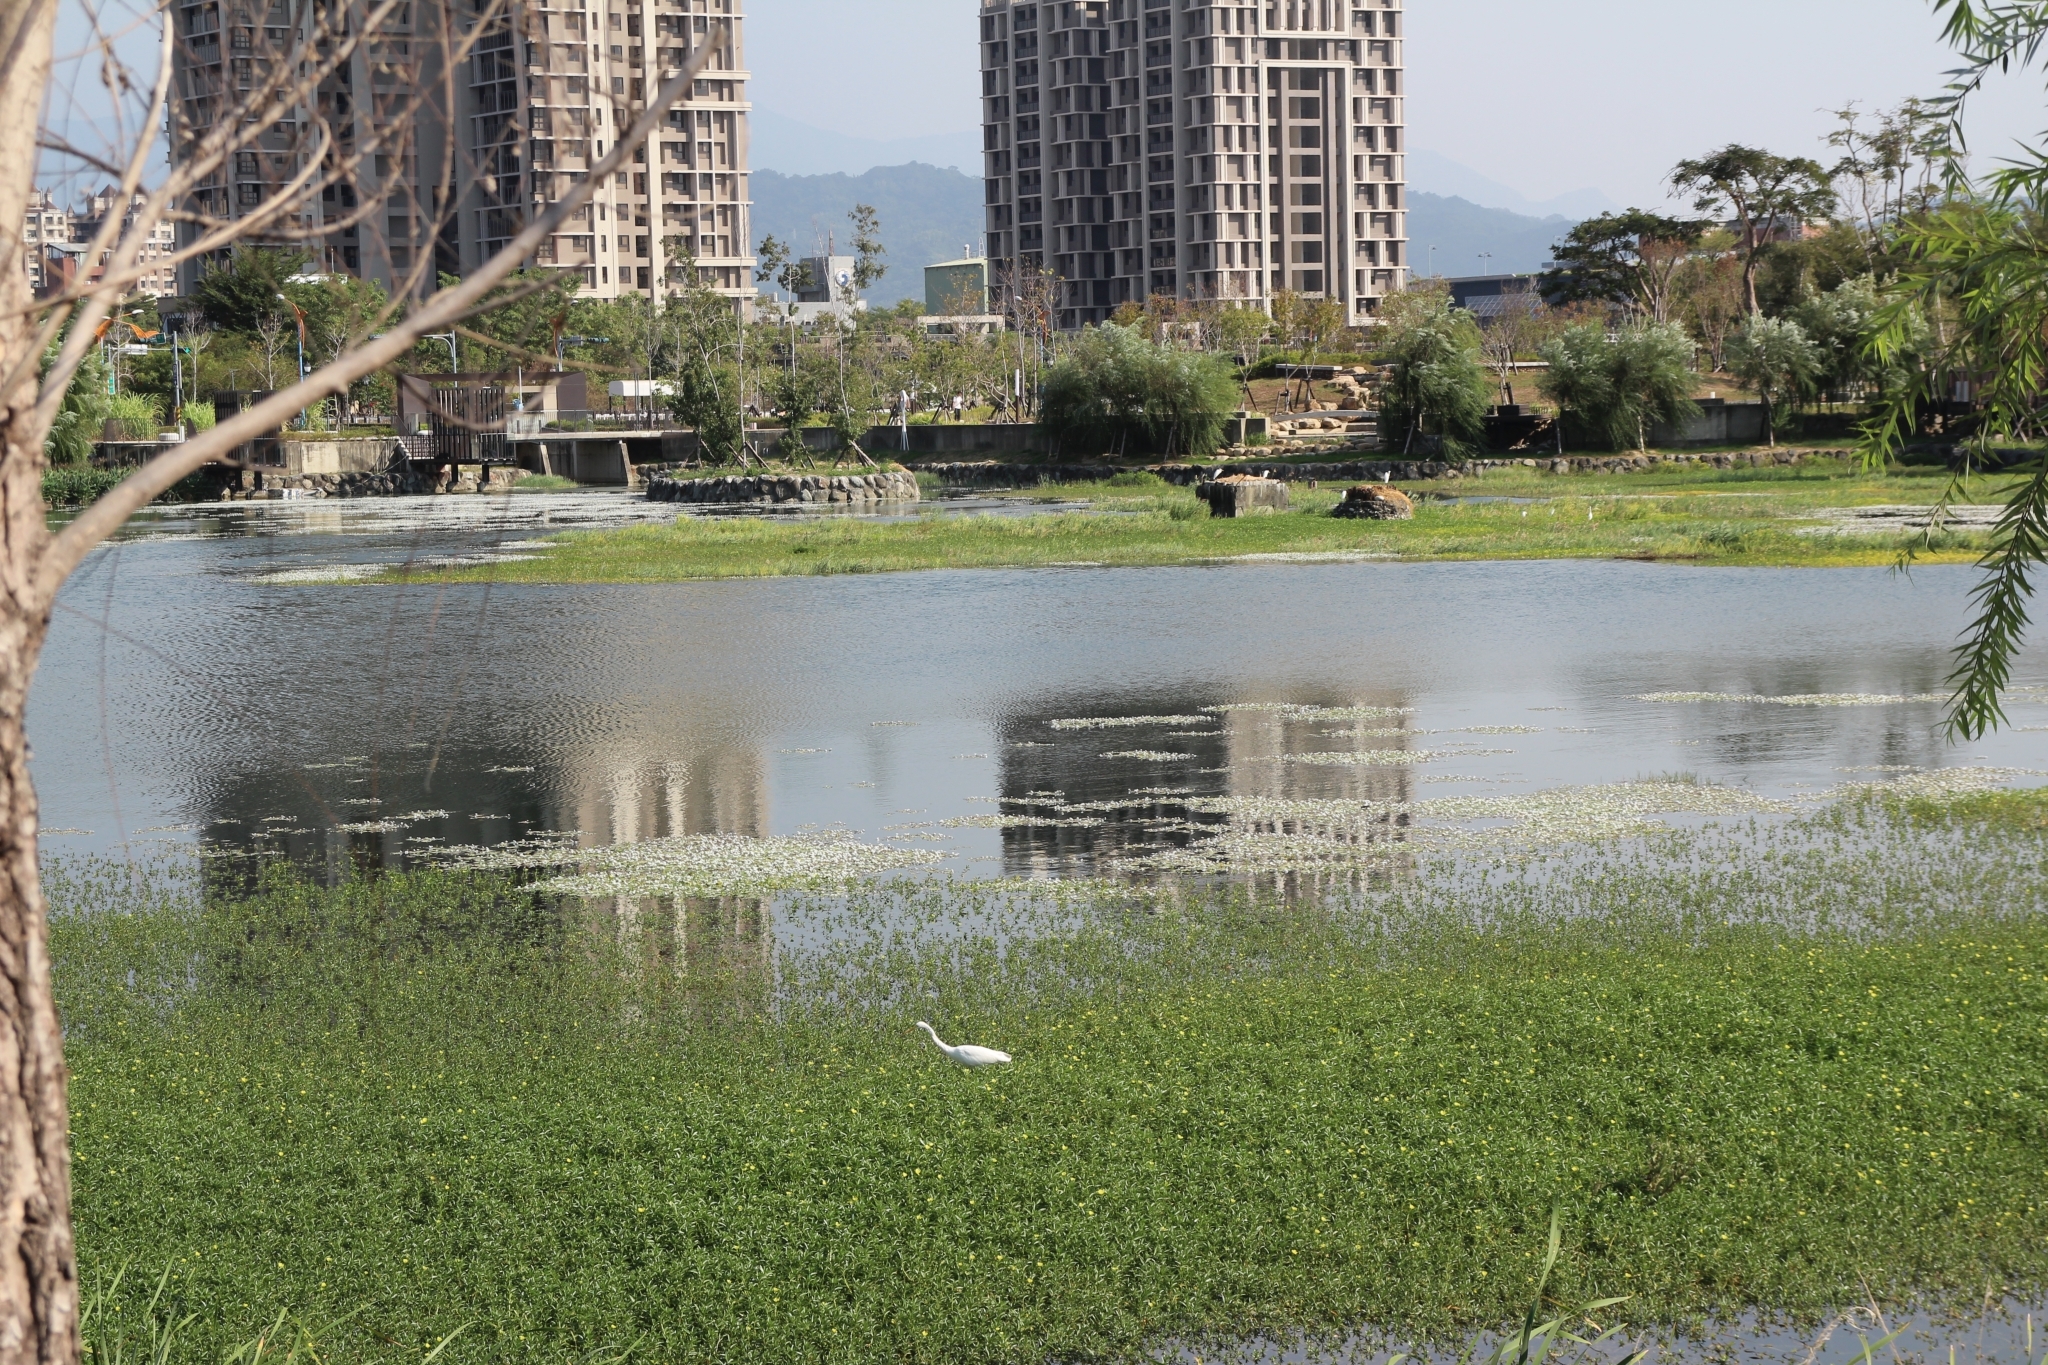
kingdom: Animalia
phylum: Chordata
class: Aves
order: Pelecaniformes
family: Ardeidae
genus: Ardea
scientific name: Ardea alba
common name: Great egret
